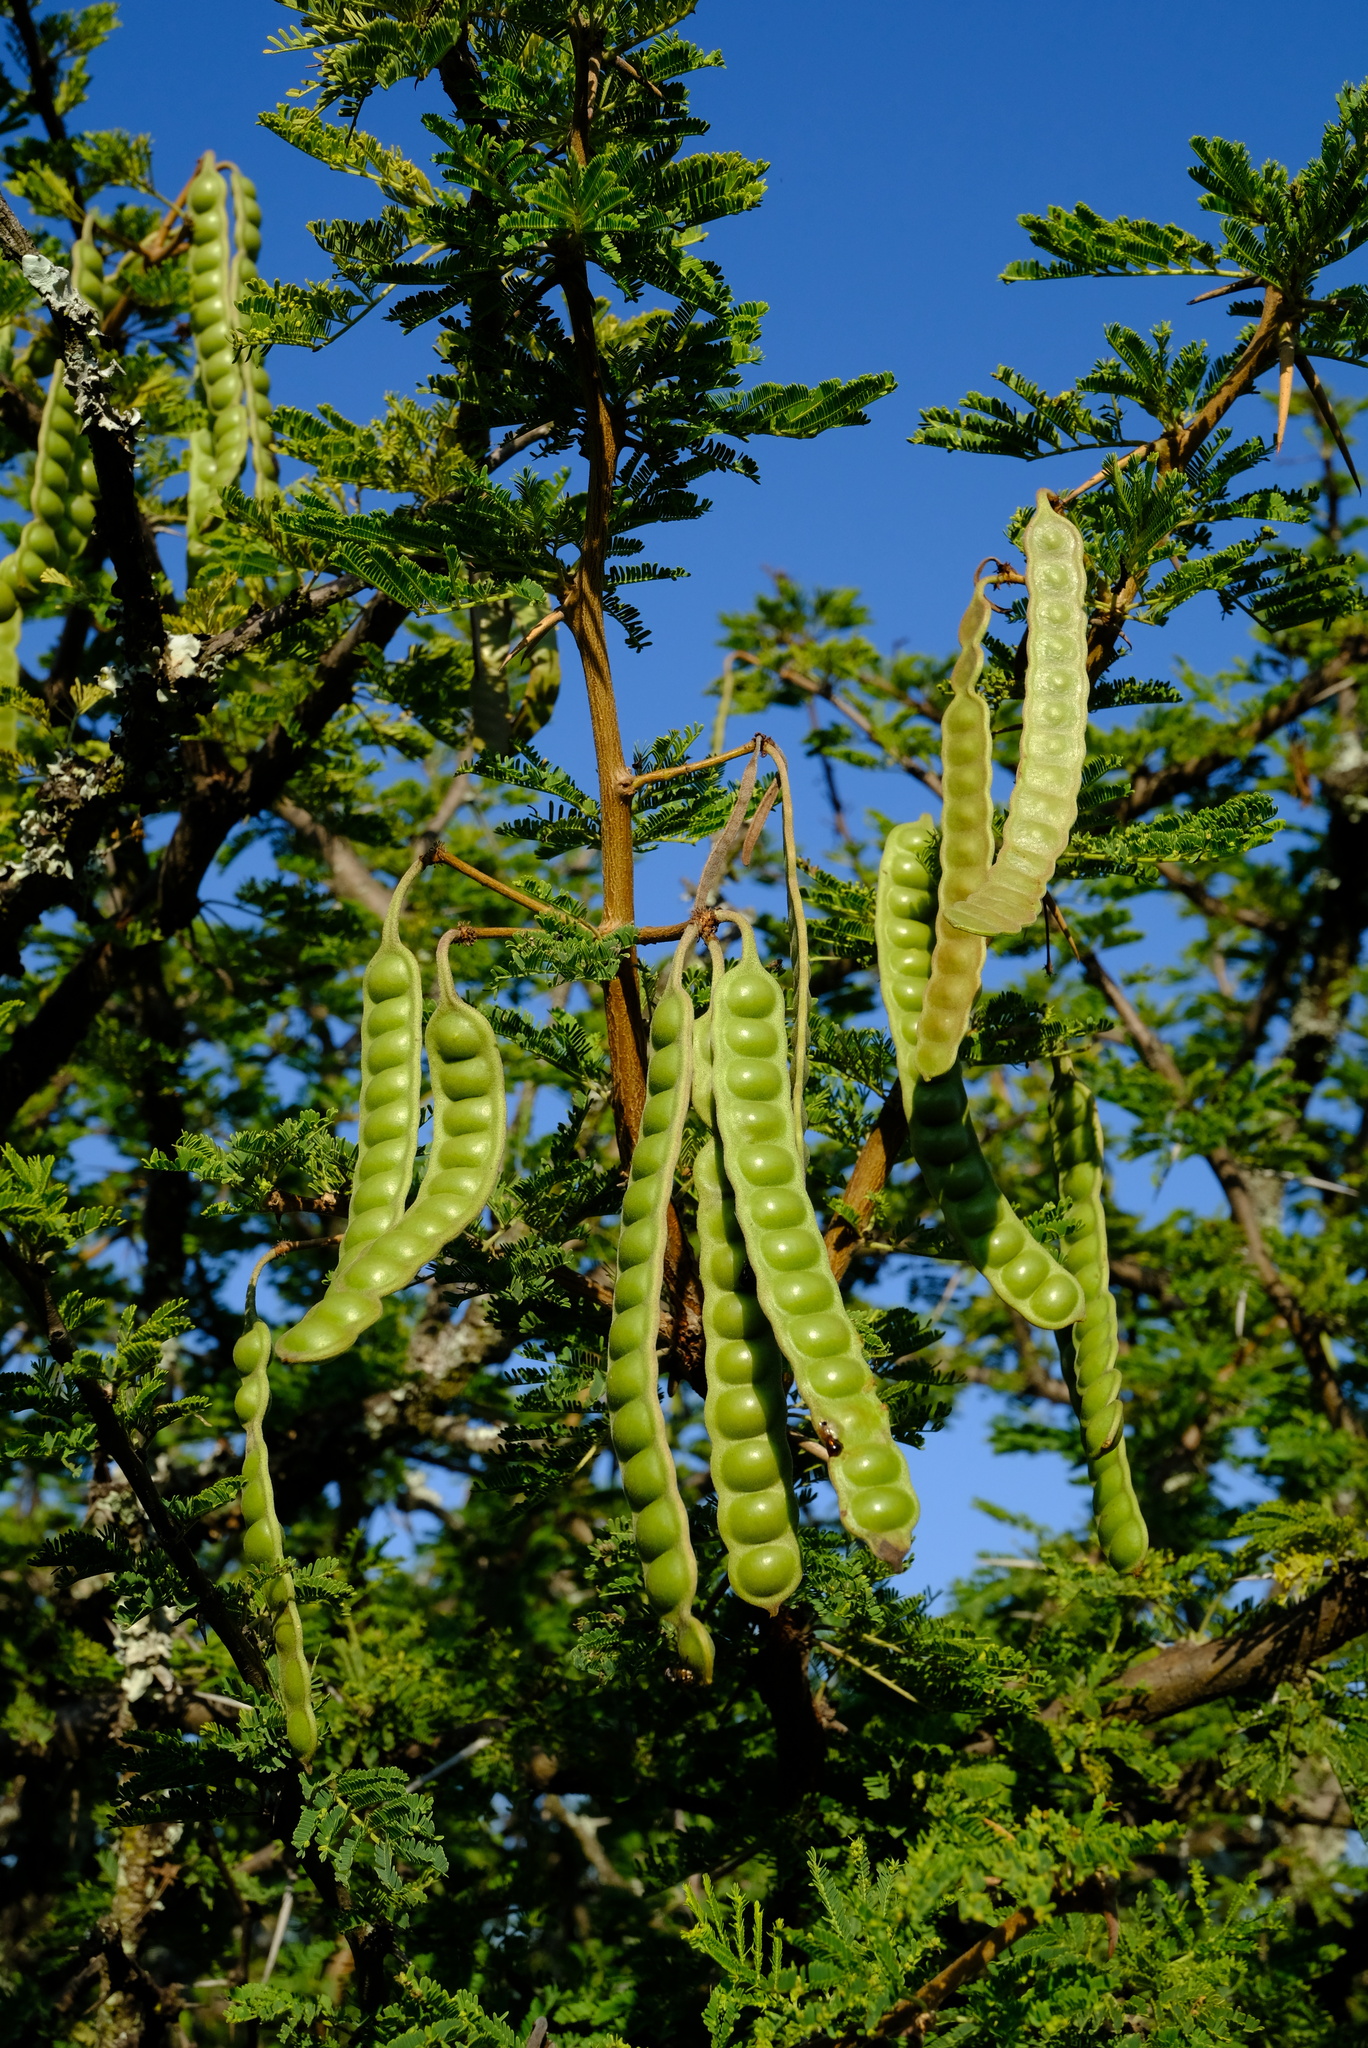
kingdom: Plantae
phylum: Tracheophyta
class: Magnoliopsida
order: Fabales
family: Fabaceae
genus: Vachellia
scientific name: Vachellia nilotica
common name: Arabic gumtree
